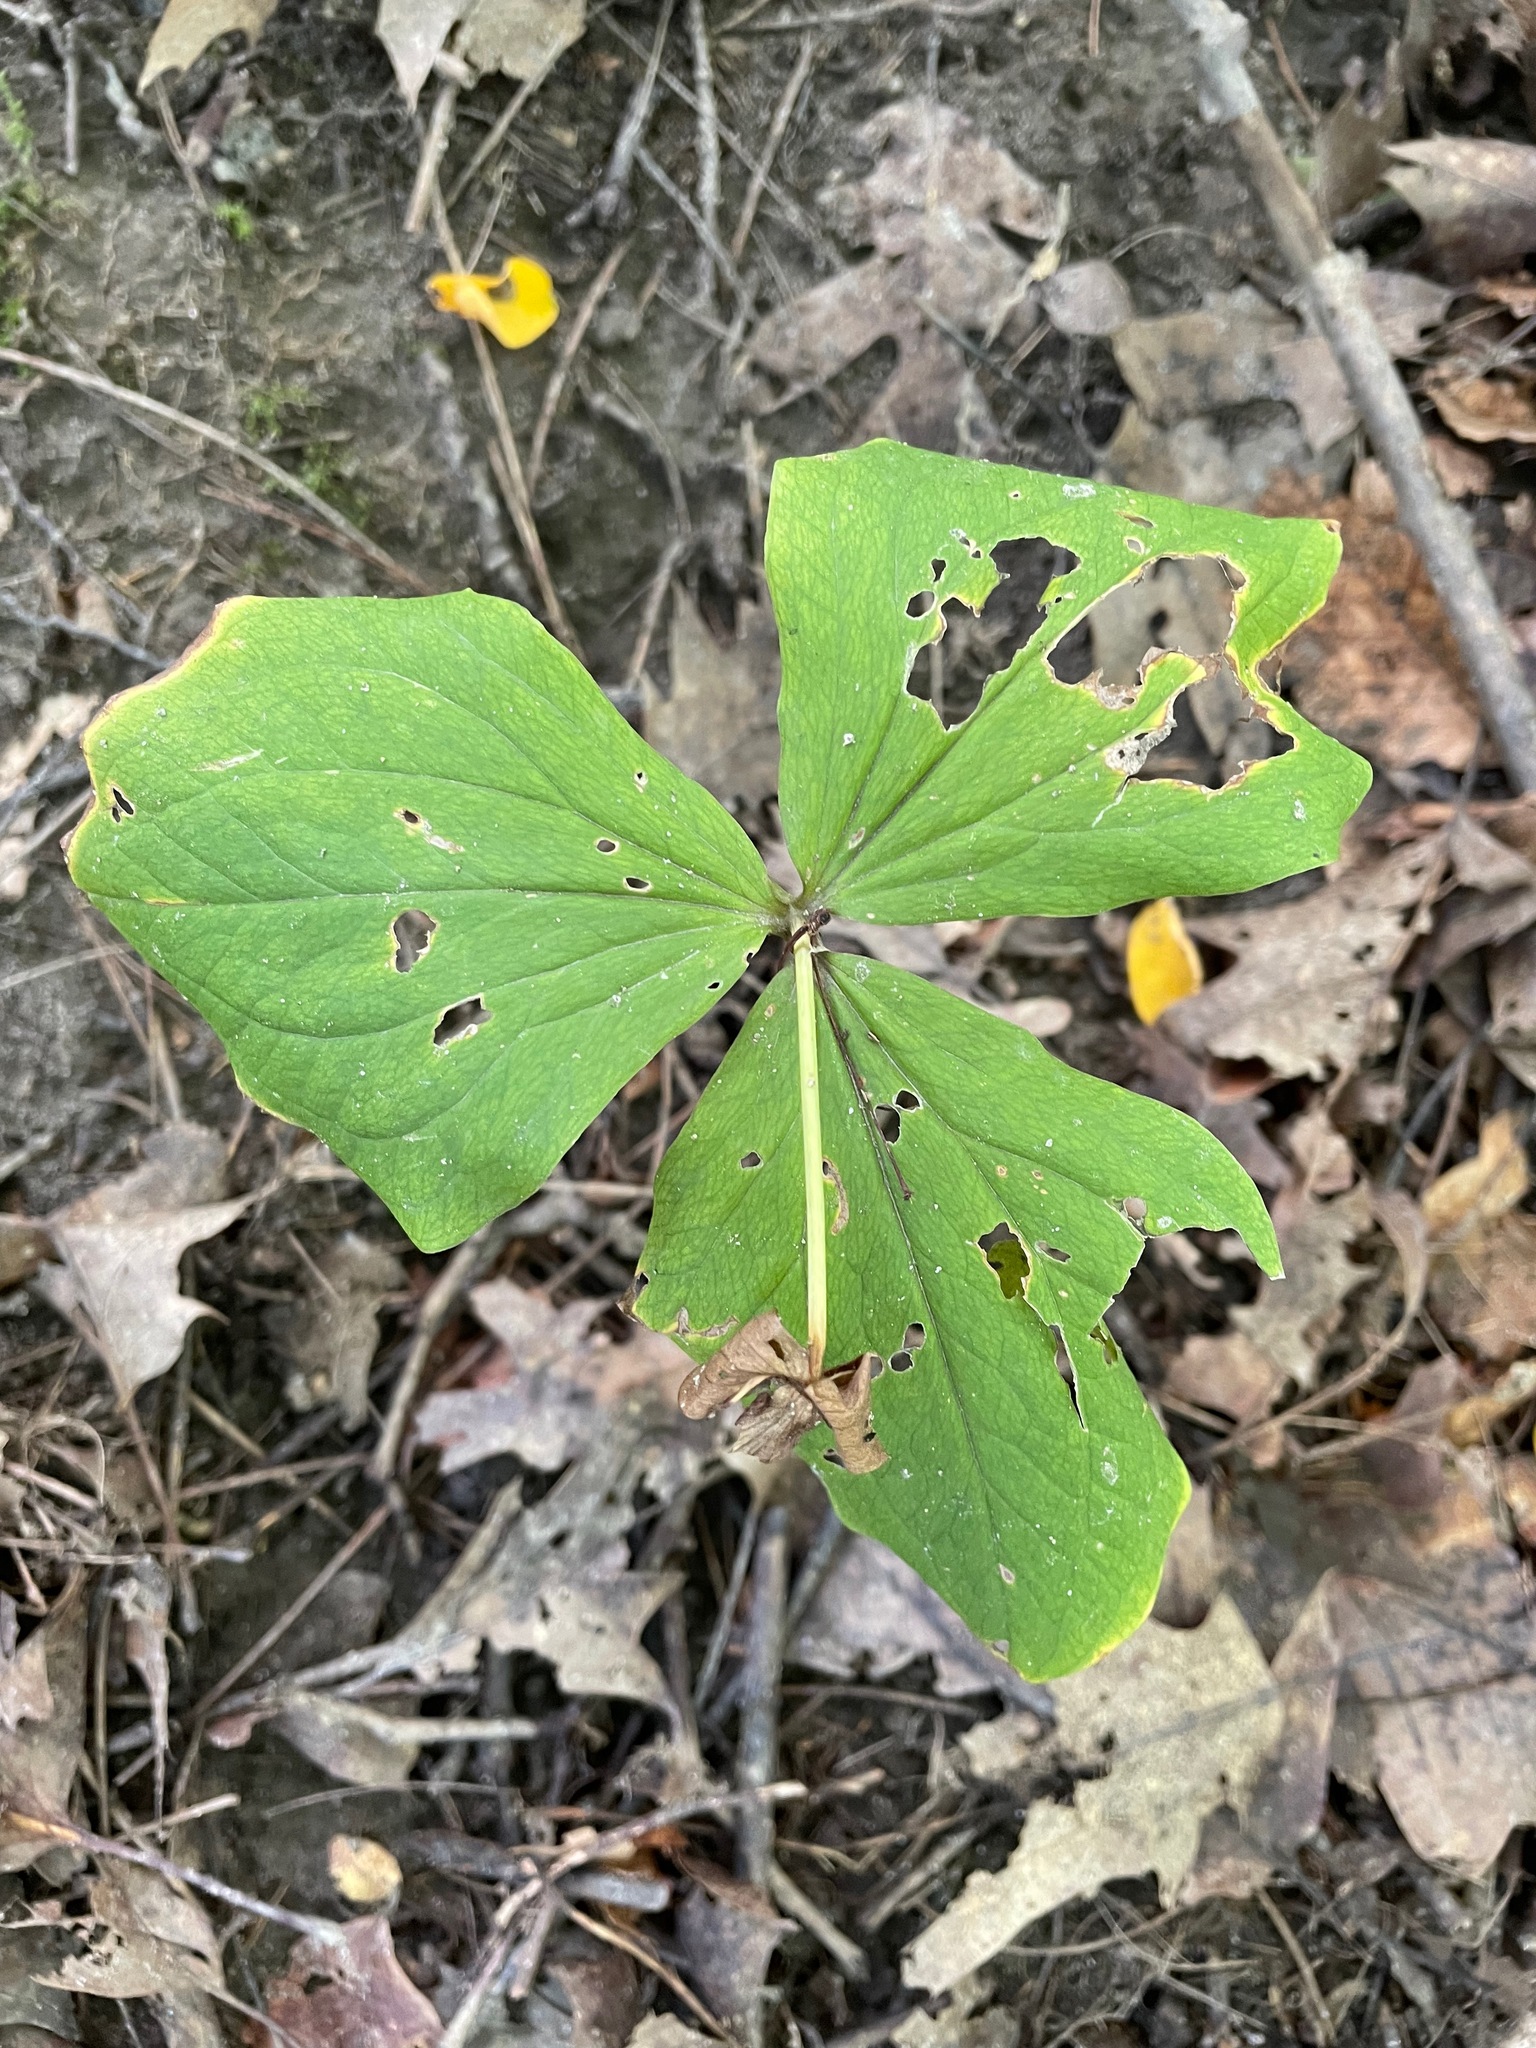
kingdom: Plantae
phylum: Tracheophyta
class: Liliopsida
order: Liliales
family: Melanthiaceae
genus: Trillium
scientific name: Trillium grandiflorum
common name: Great white trillium
